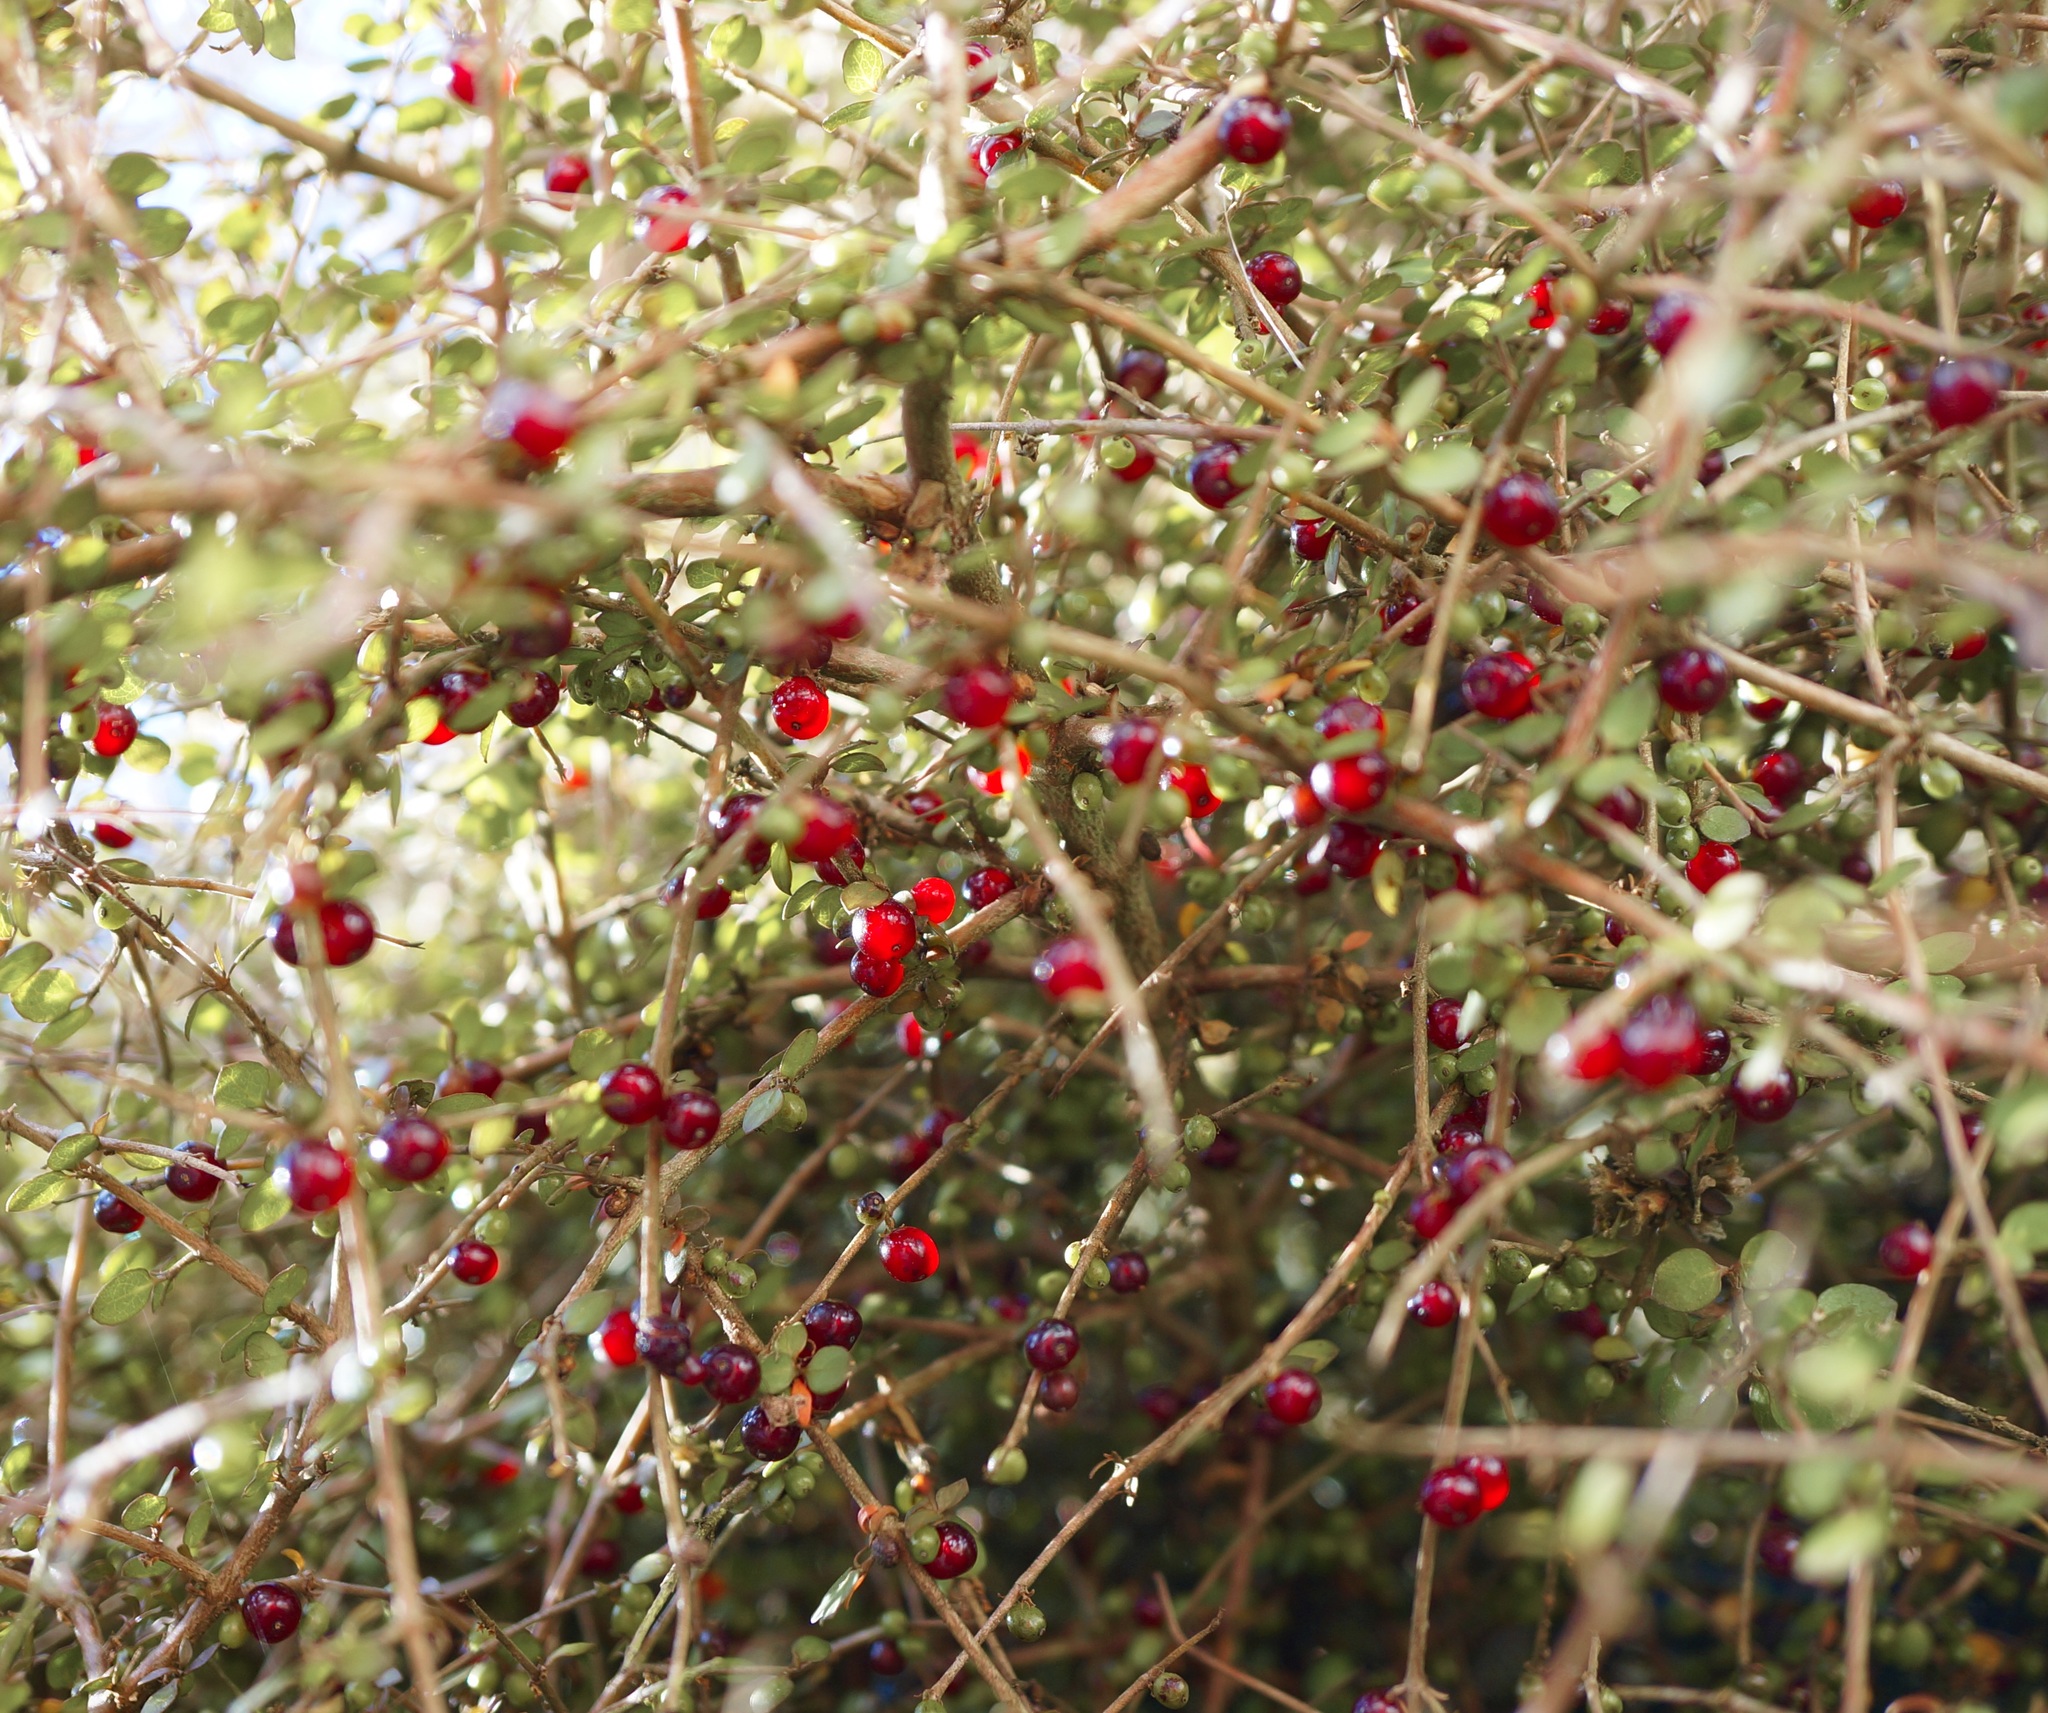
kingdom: Plantae
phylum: Tracheophyta
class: Magnoliopsida
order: Gentianales
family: Rubiaceae
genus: Coprosma
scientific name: Coprosma rhamnoides
